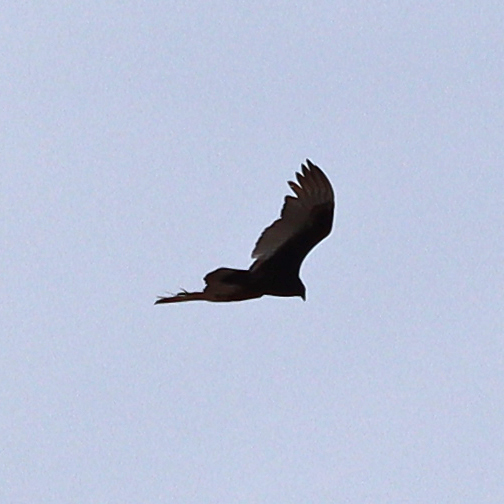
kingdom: Animalia
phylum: Chordata
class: Aves
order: Accipitriformes
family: Cathartidae
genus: Cathartes
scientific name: Cathartes aura
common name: Turkey vulture
